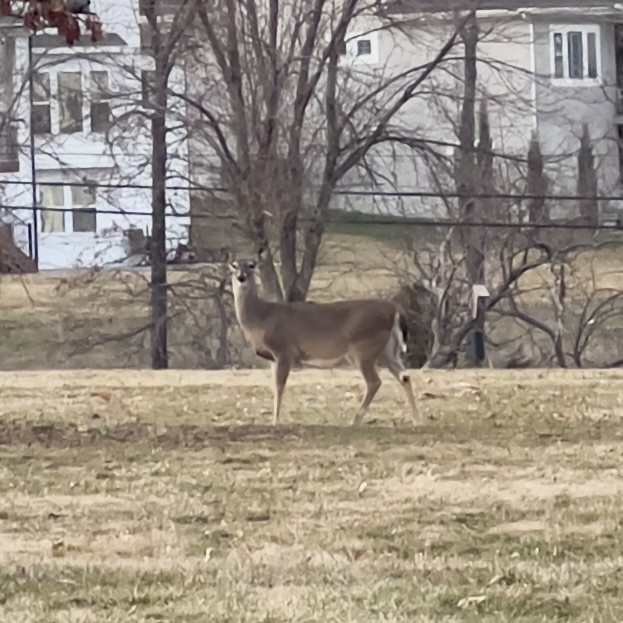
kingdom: Animalia
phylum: Chordata
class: Mammalia
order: Artiodactyla
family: Cervidae
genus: Odocoileus
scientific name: Odocoileus virginianus
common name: White-tailed deer
